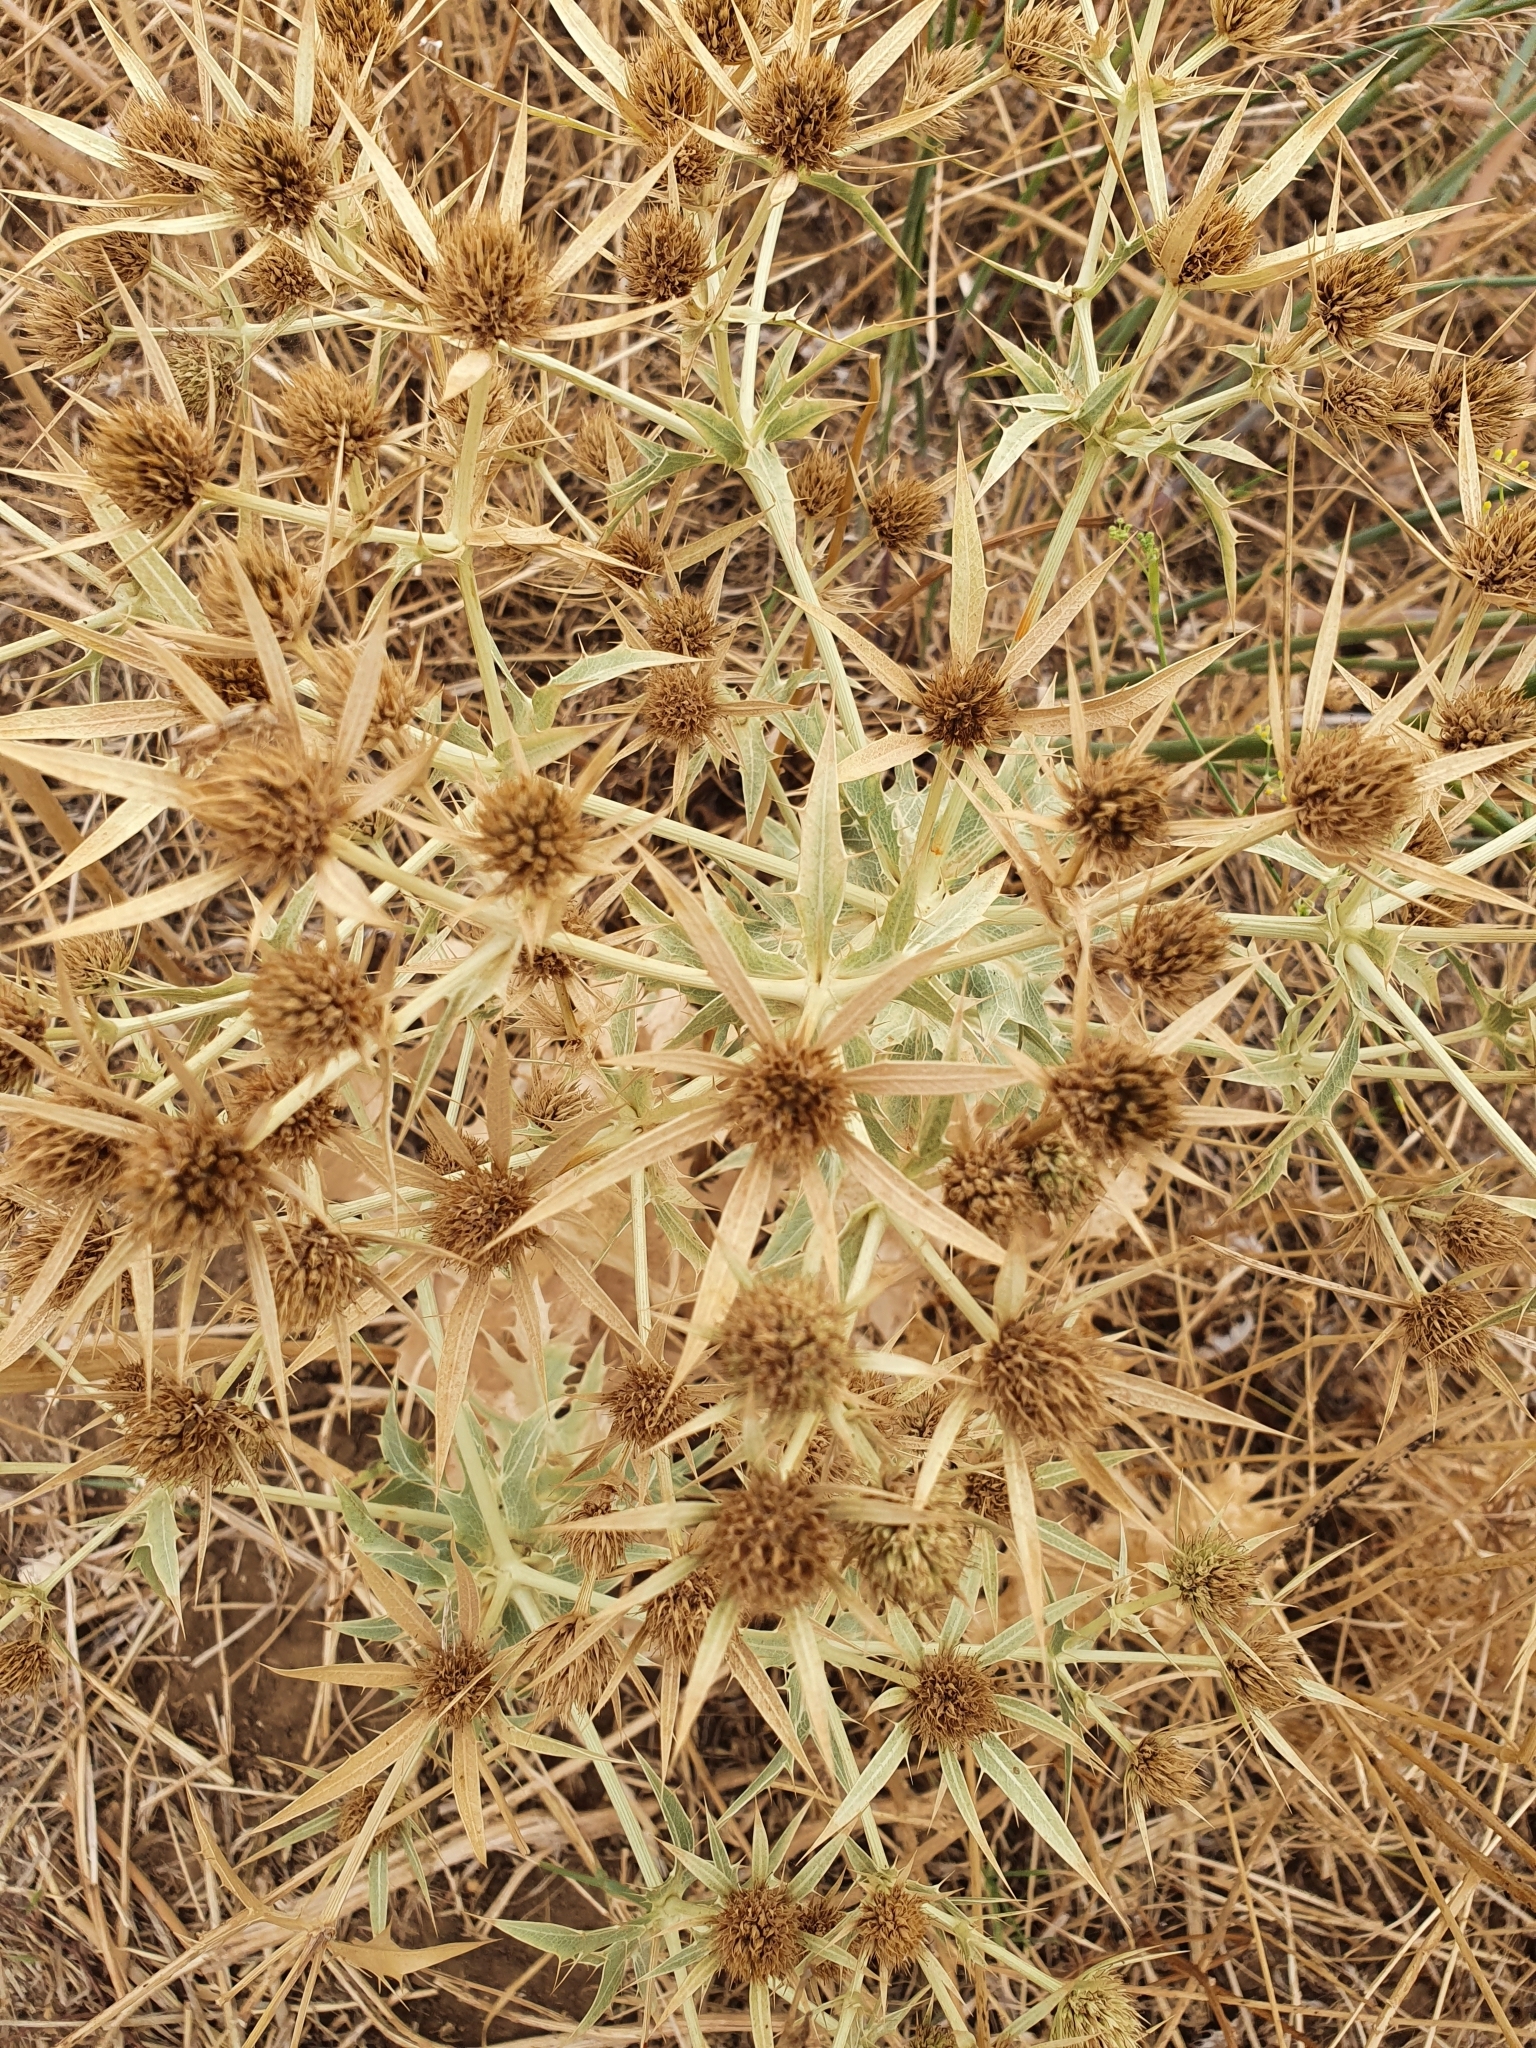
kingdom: Plantae
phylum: Tracheophyta
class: Magnoliopsida
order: Apiales
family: Apiaceae
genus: Eryngium
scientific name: Eryngium campestre
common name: Field eryngo
